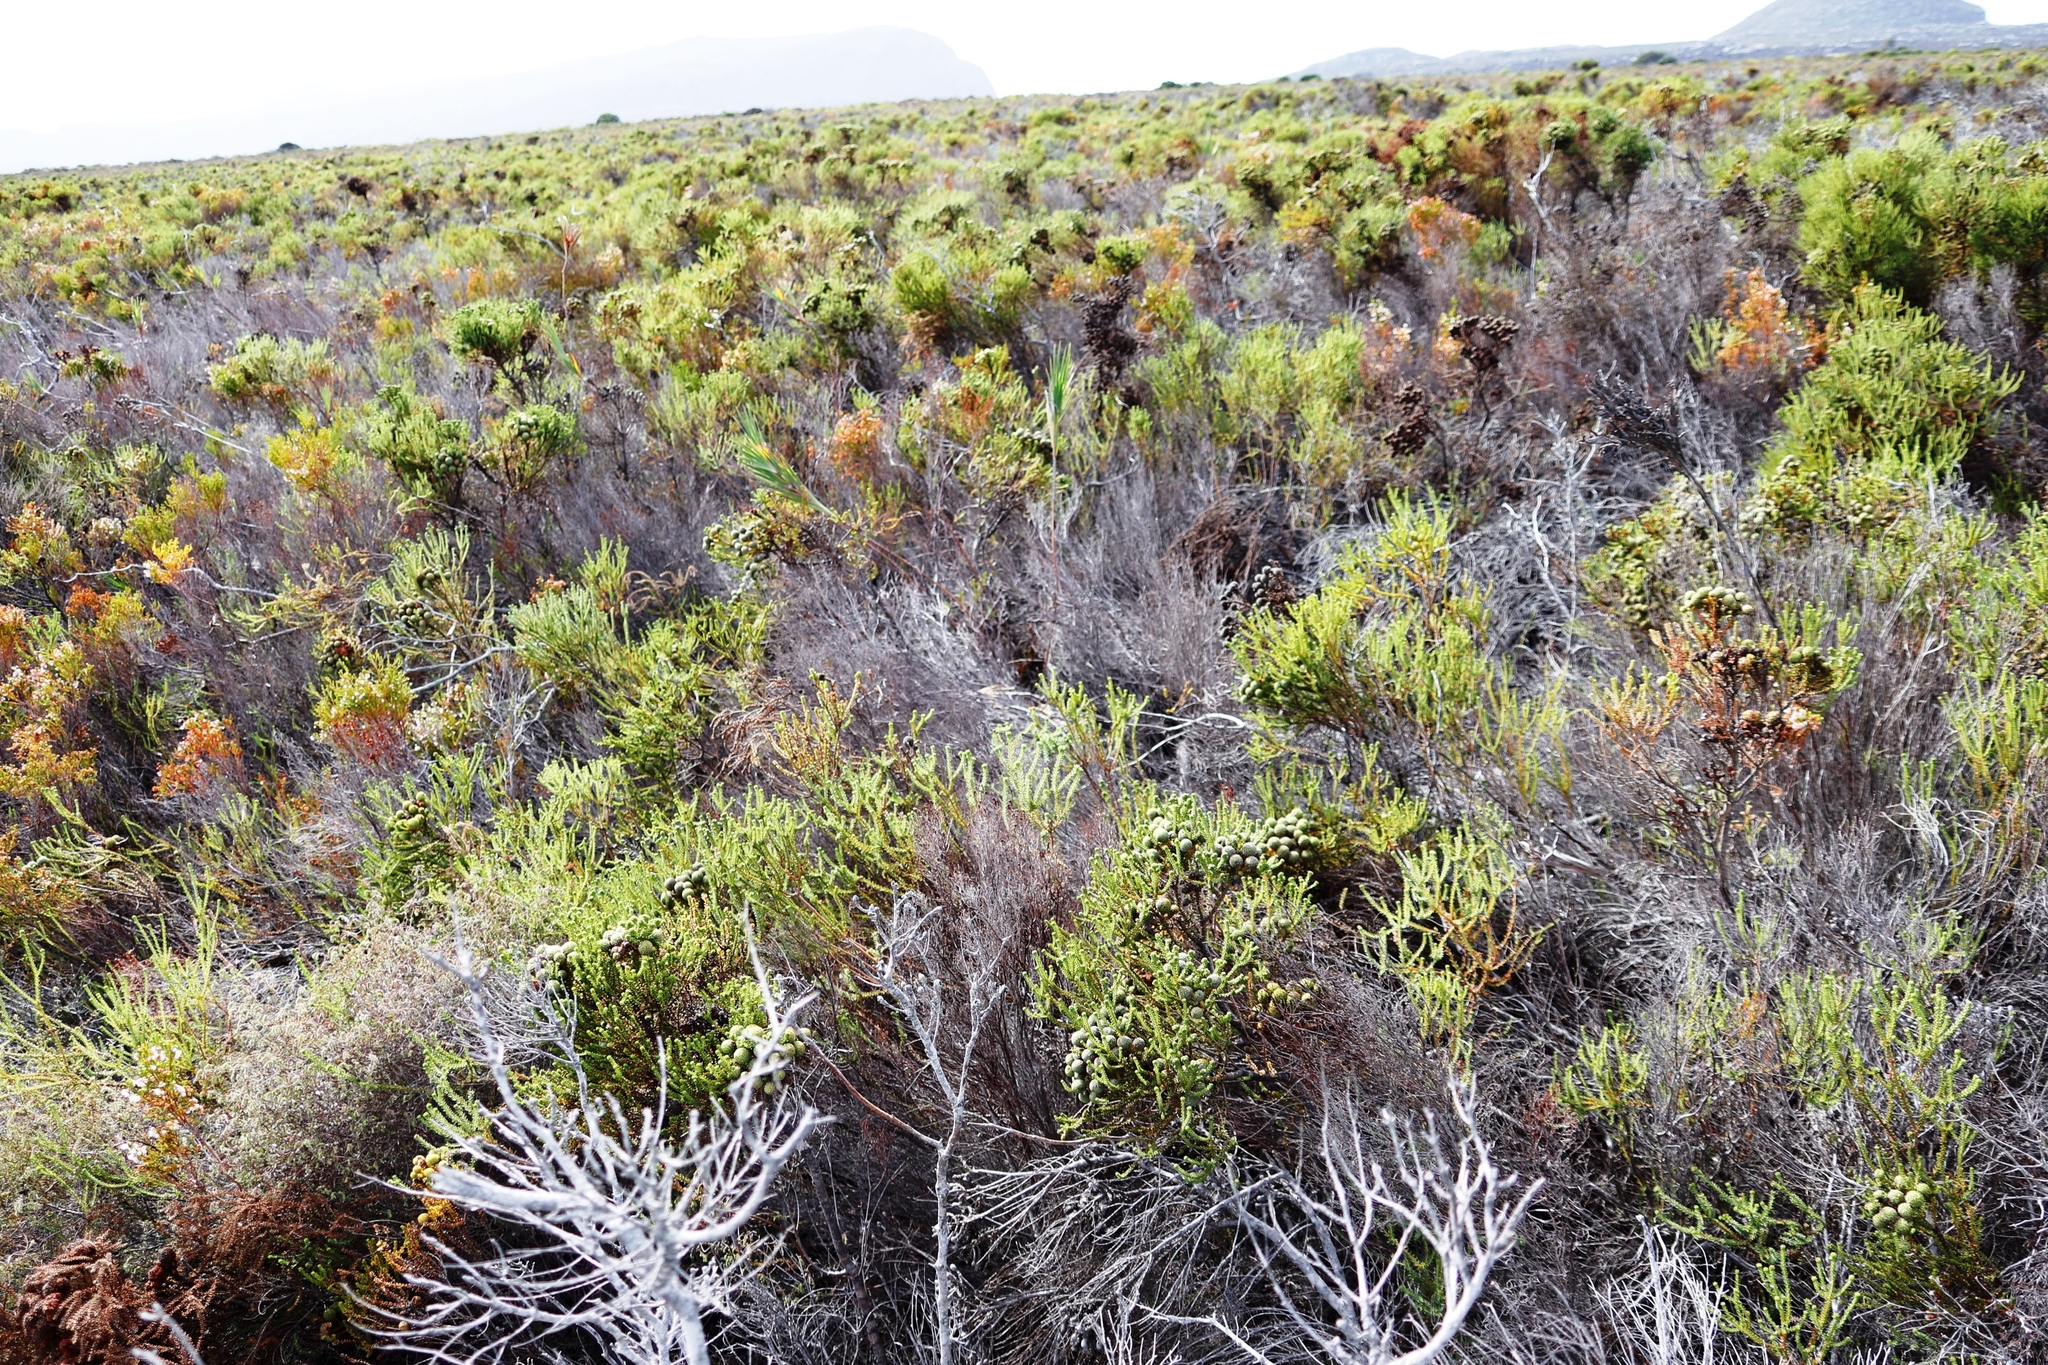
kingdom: Plantae
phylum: Tracheophyta
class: Liliopsida
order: Asparagales
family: Iridaceae
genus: Witsenia
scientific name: Witsenia maura
